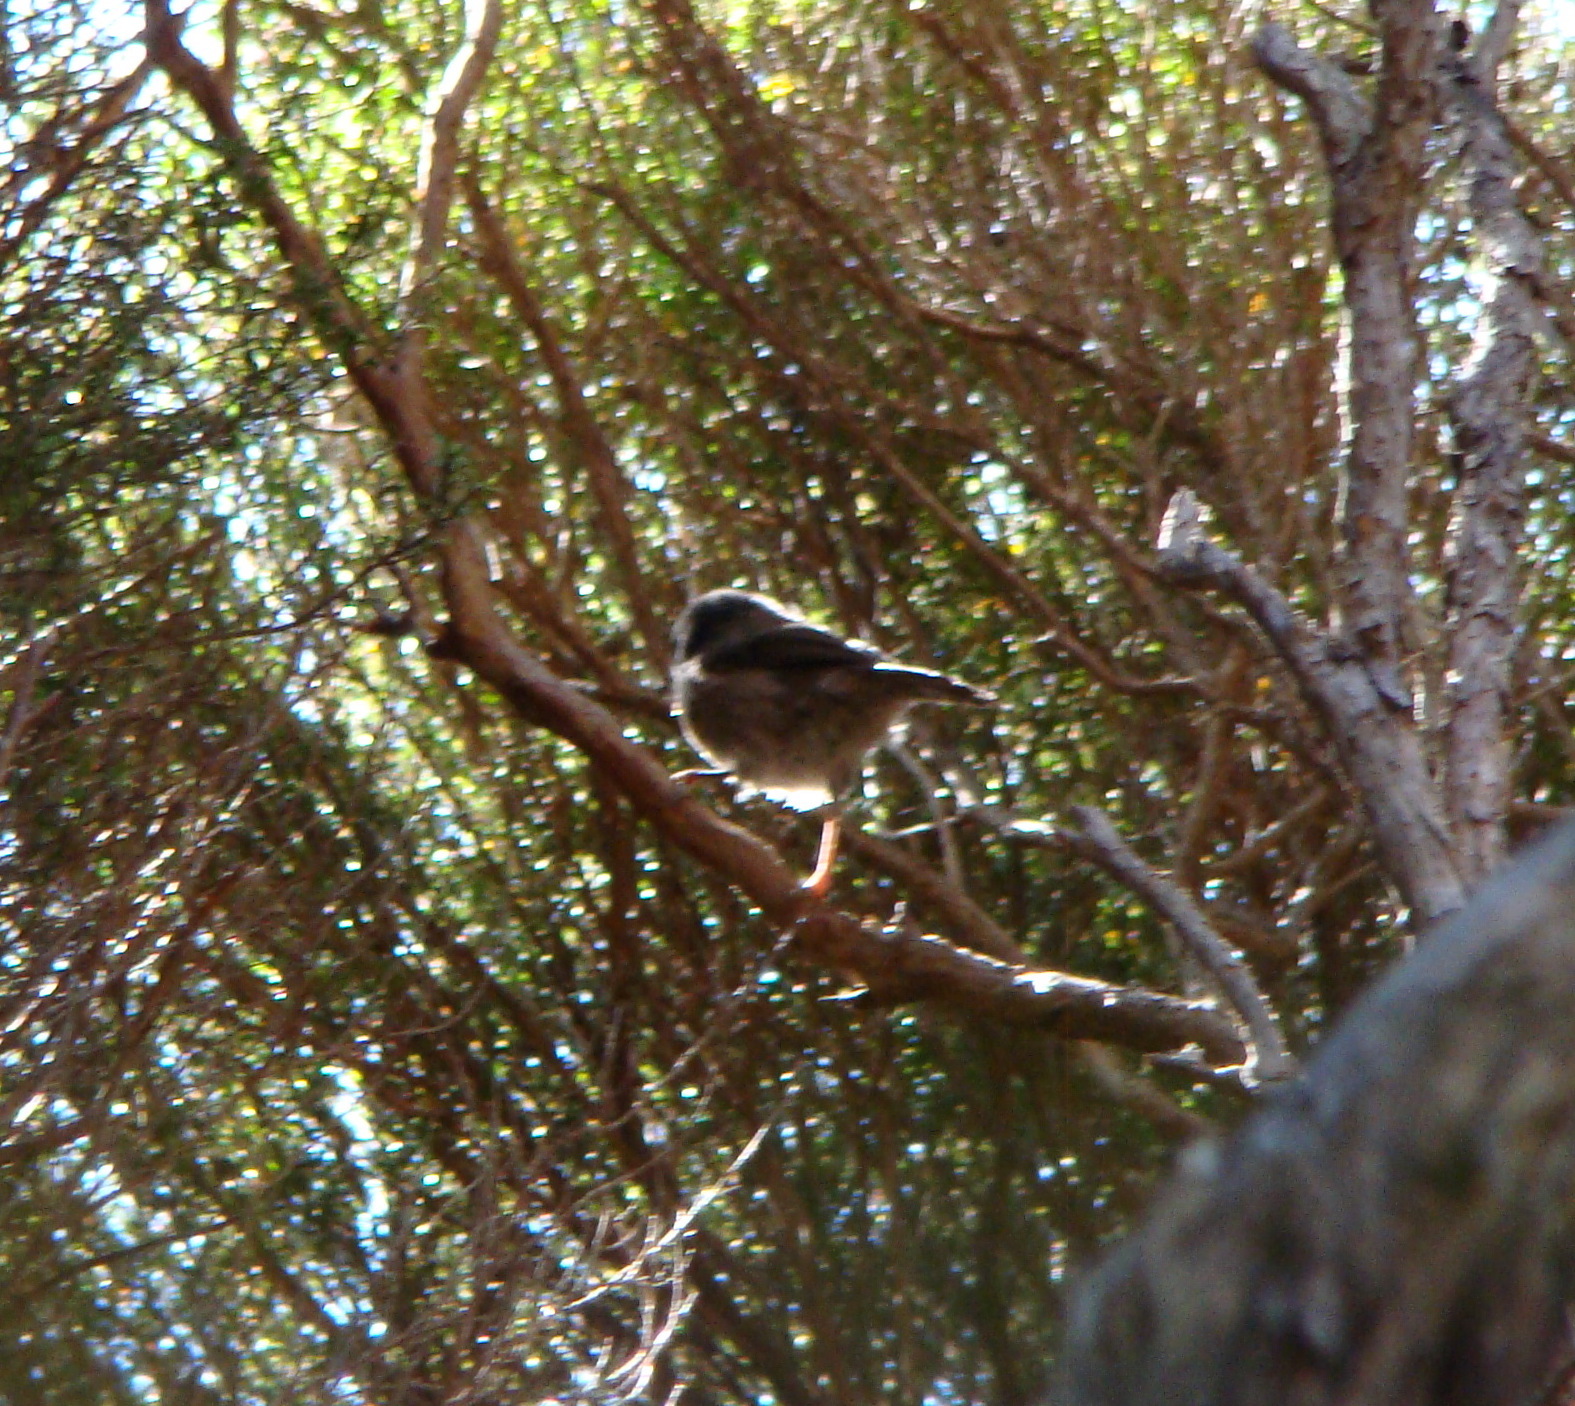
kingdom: Animalia
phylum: Chordata
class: Aves
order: Passeriformes
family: Acanthizidae
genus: Finschia
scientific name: Finschia novaeseelandiae
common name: Pipipi
